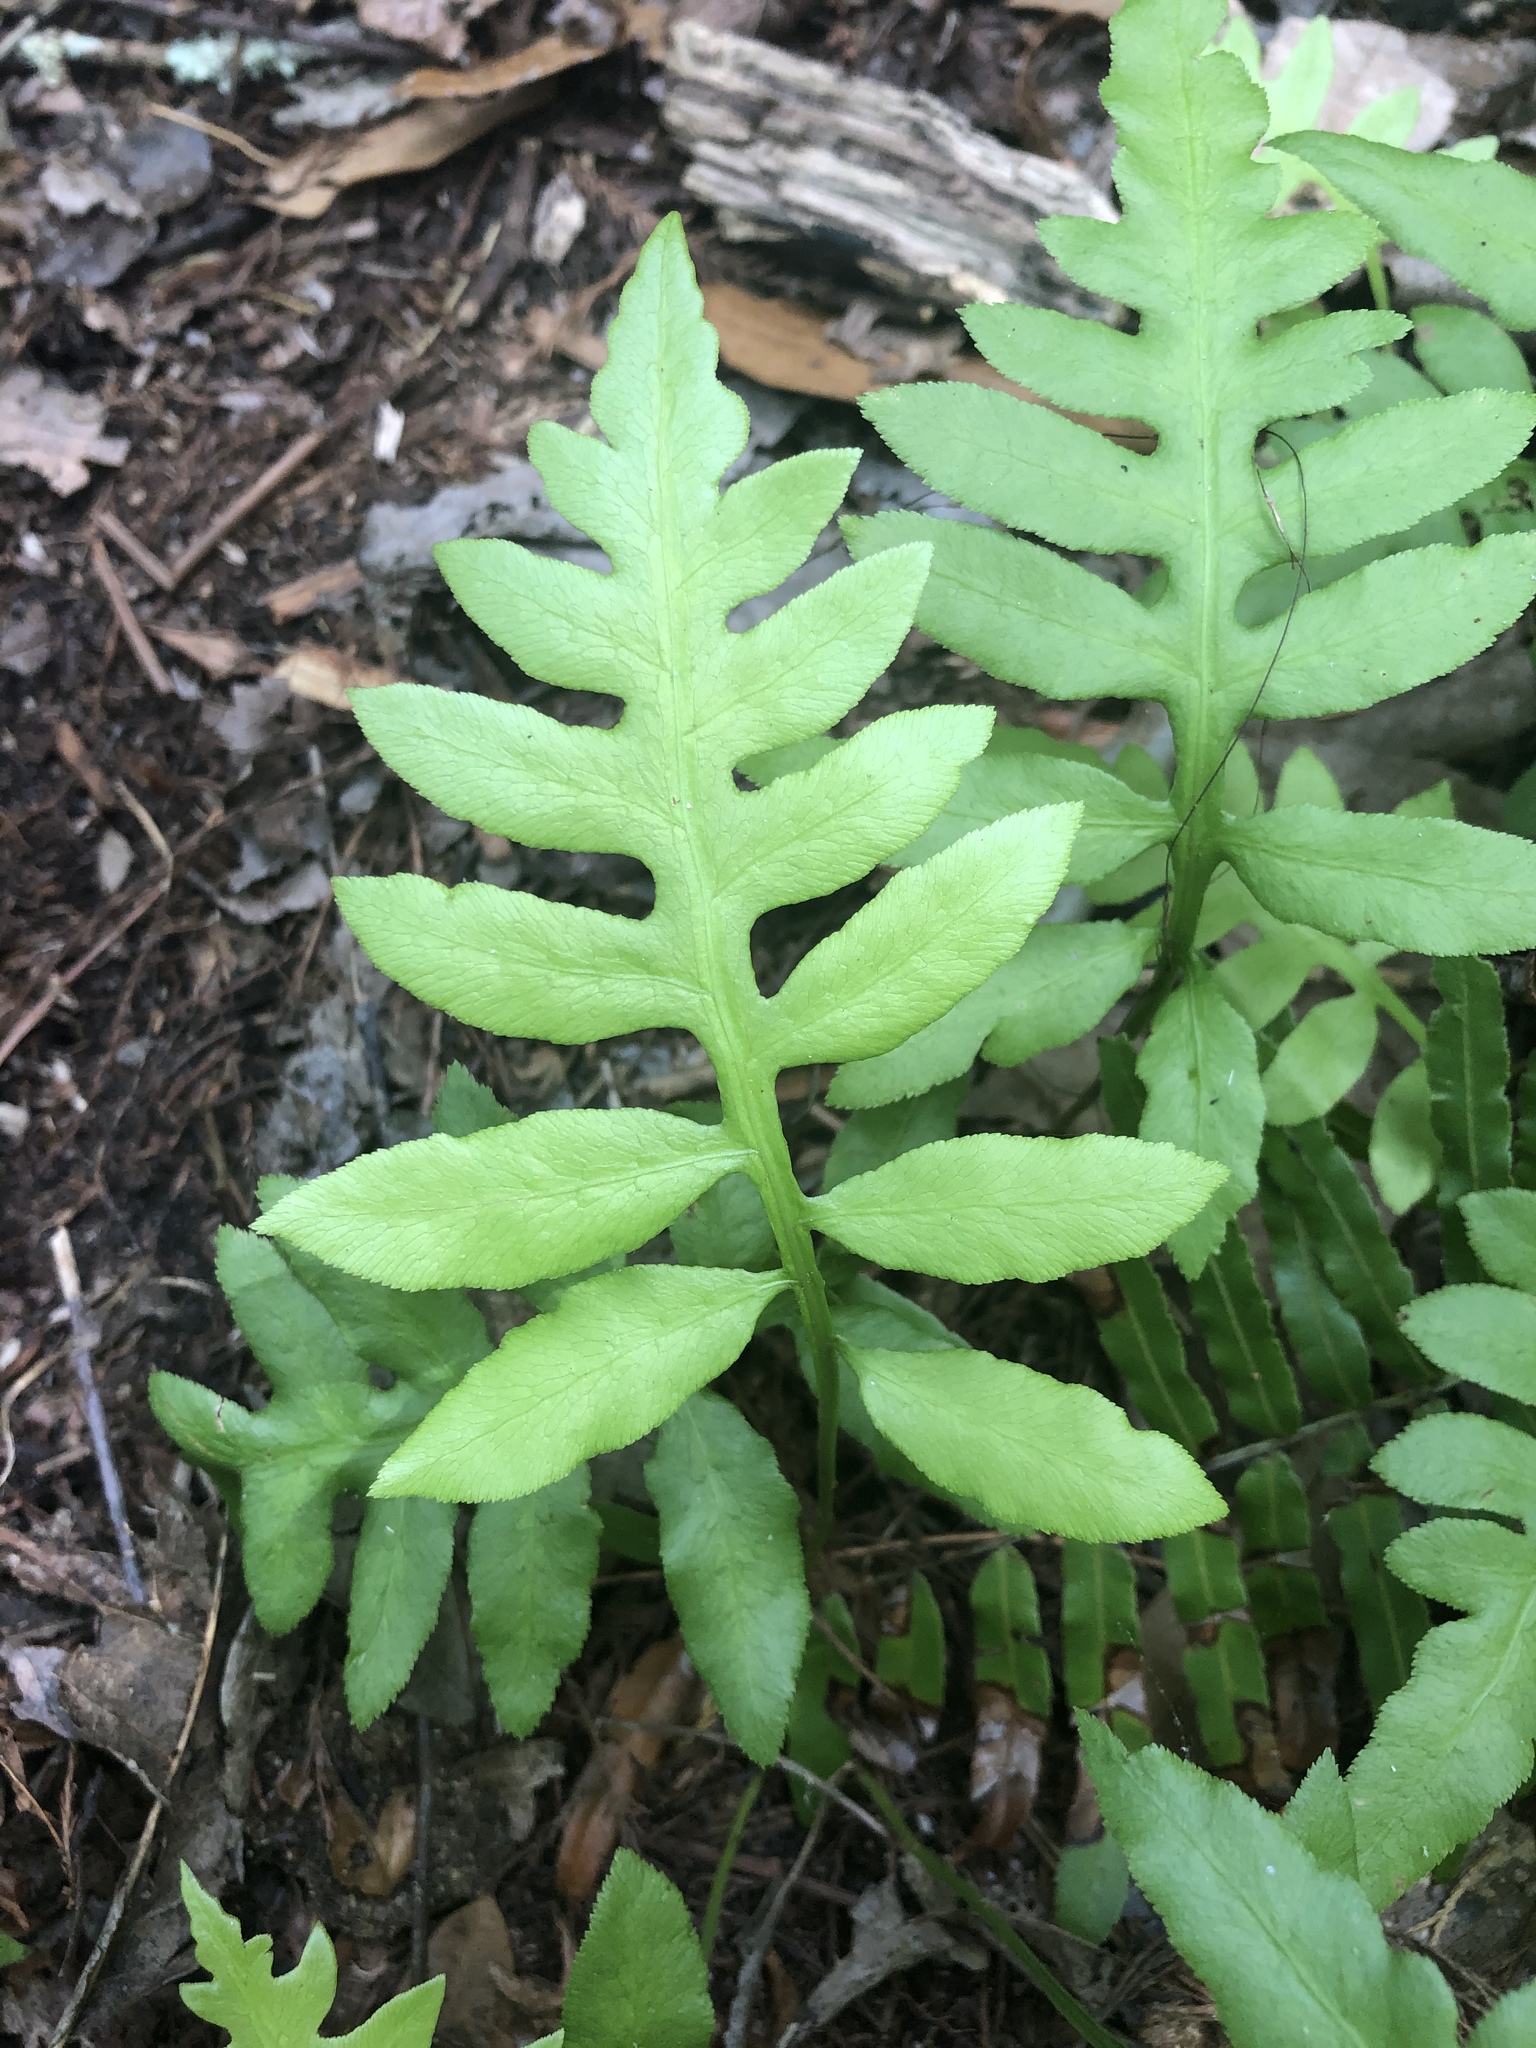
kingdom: Plantae
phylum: Tracheophyta
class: Polypodiopsida
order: Polypodiales
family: Blechnaceae
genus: Lorinseria
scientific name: Lorinseria areolata
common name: Dwarf chain fern
